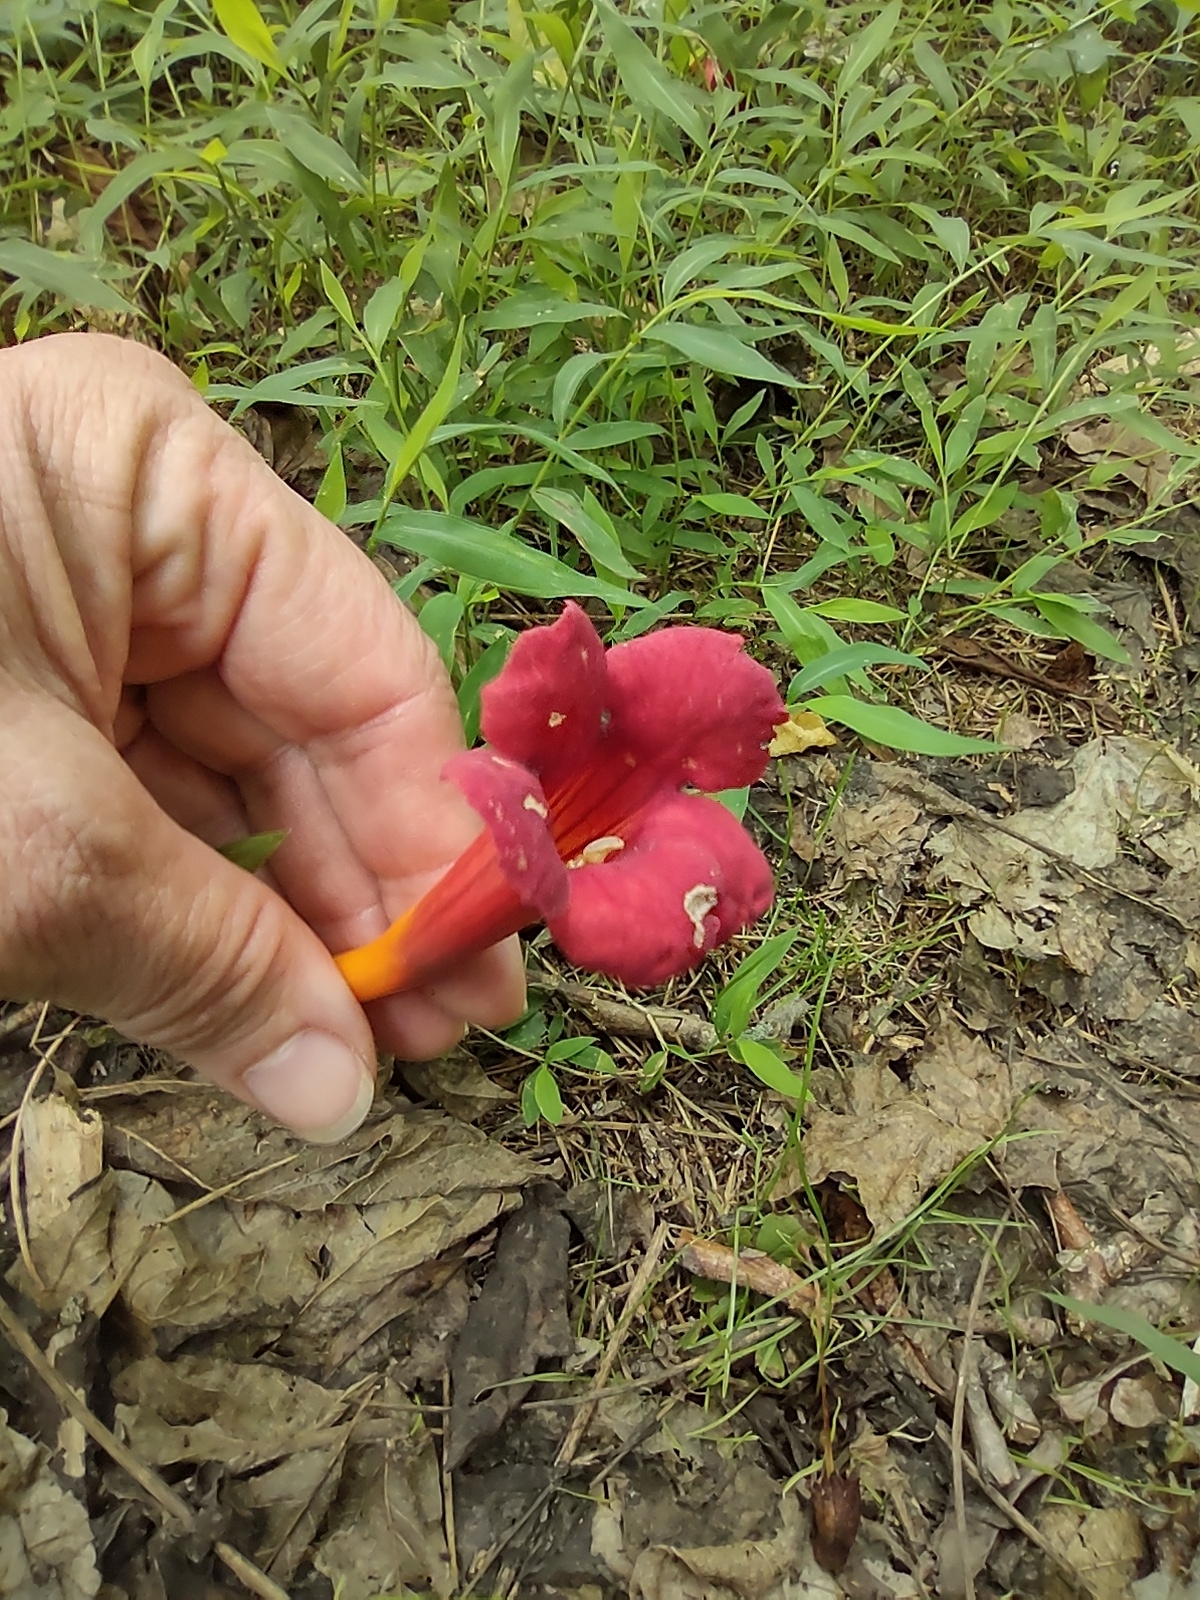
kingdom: Plantae
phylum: Tracheophyta
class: Magnoliopsida
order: Lamiales
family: Bignoniaceae
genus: Campsis
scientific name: Campsis radicans
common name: Trumpet-creeper
